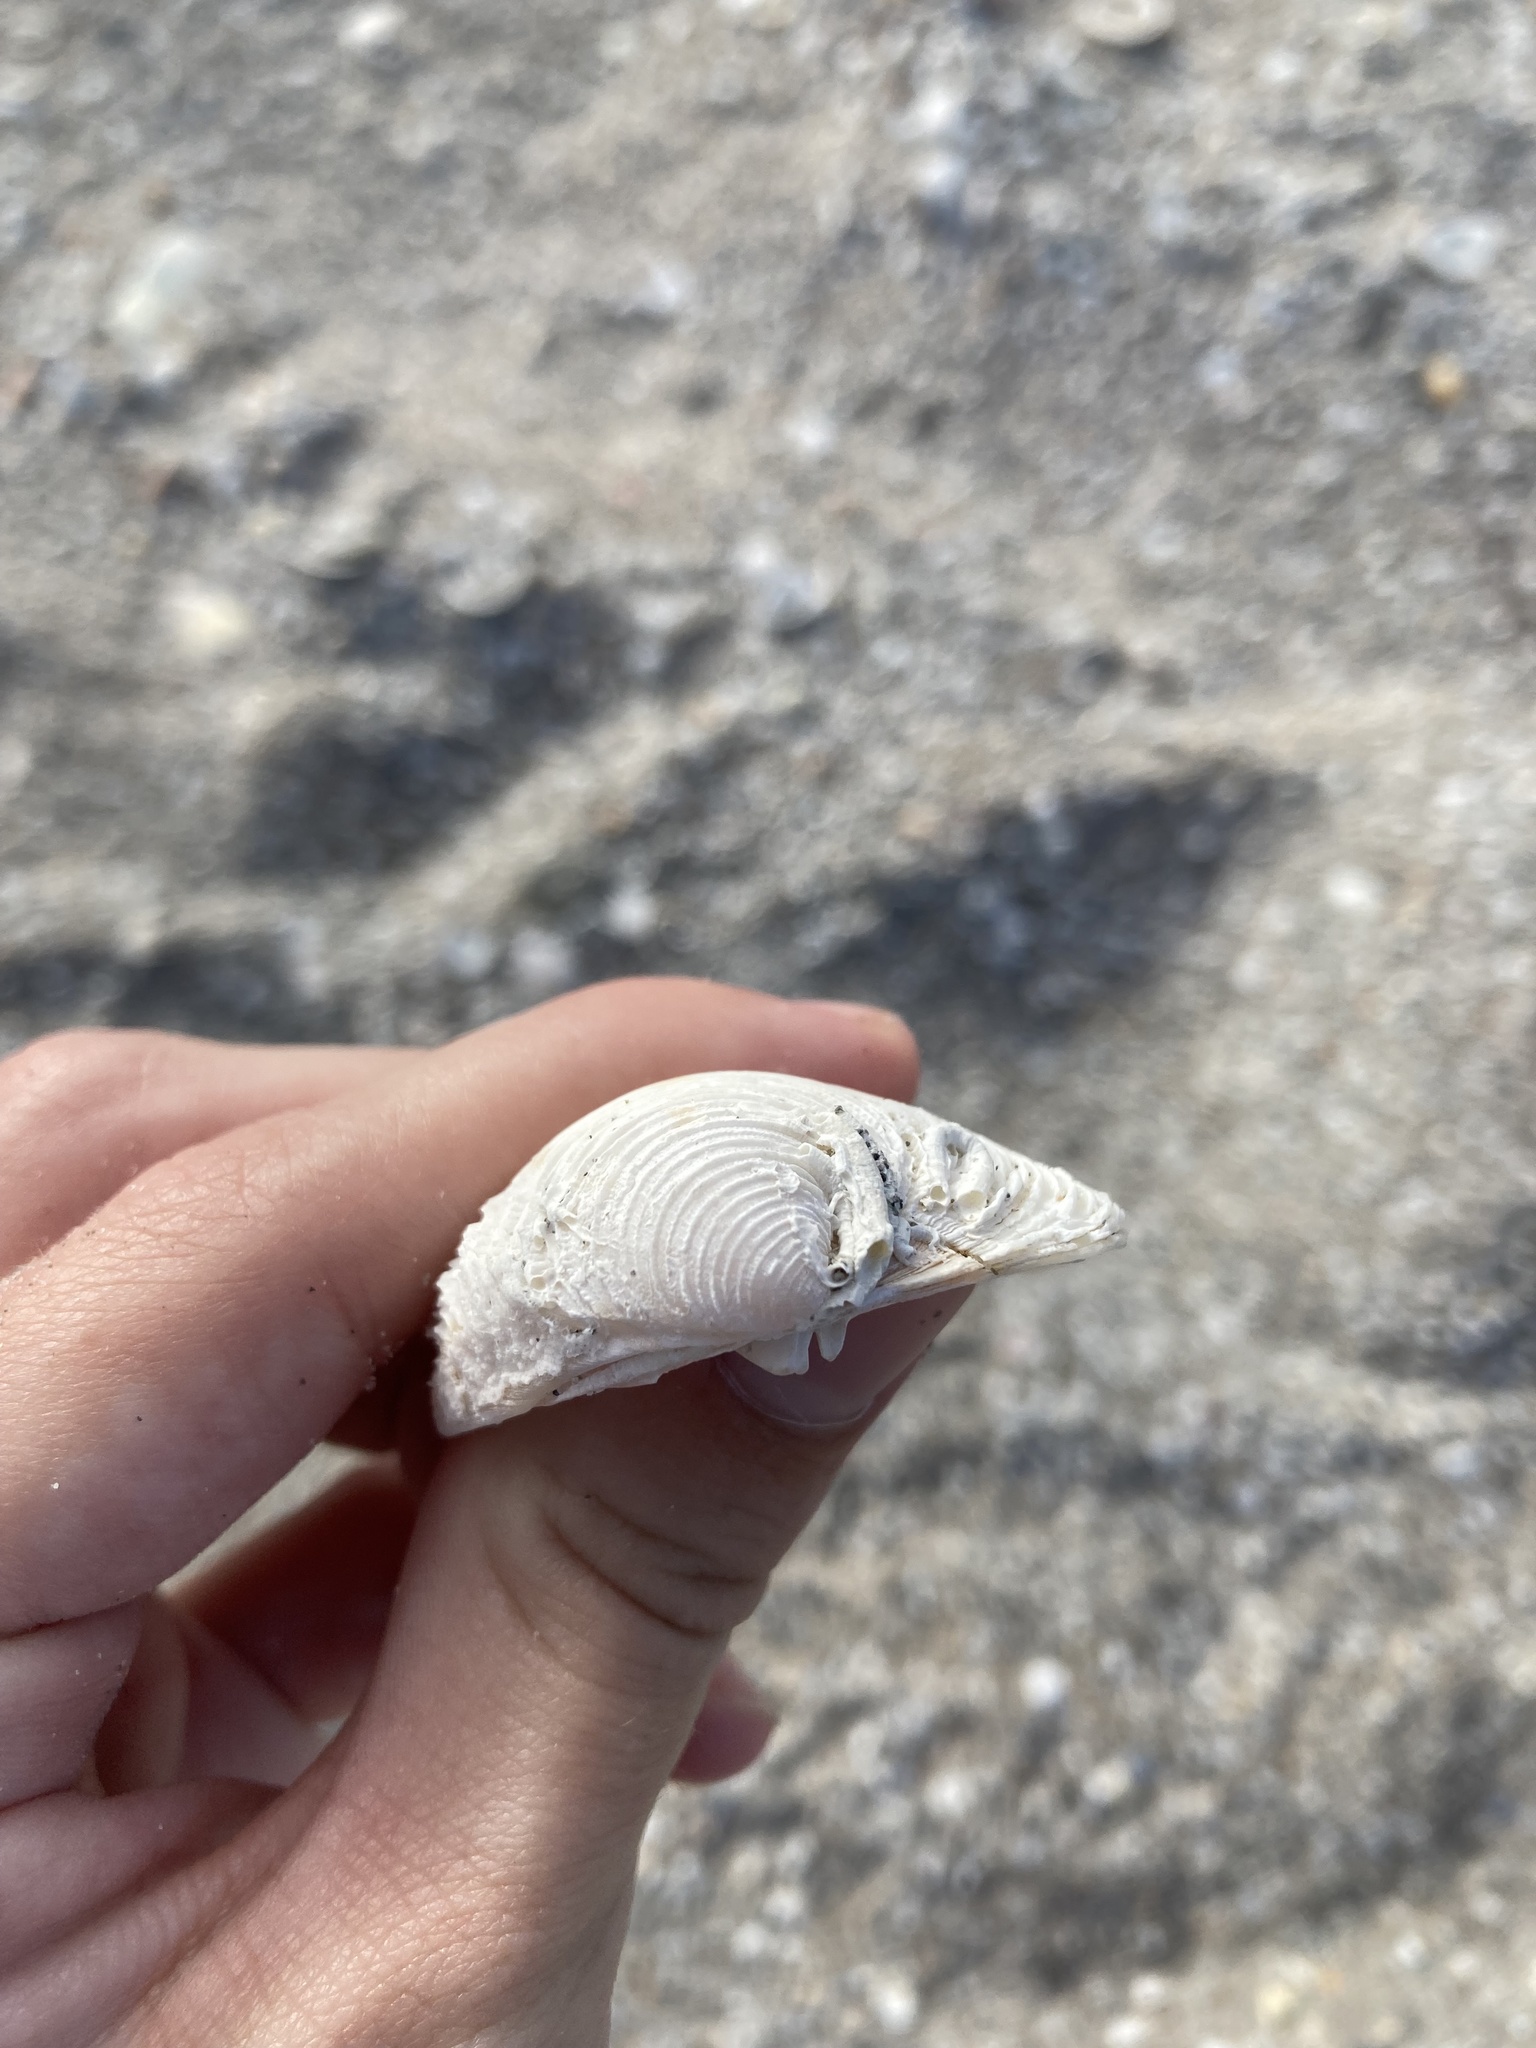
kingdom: Animalia
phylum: Mollusca
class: Bivalvia
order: Venerida
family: Veneridae
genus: Chionopsis
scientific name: Chionopsis intapurpurea
